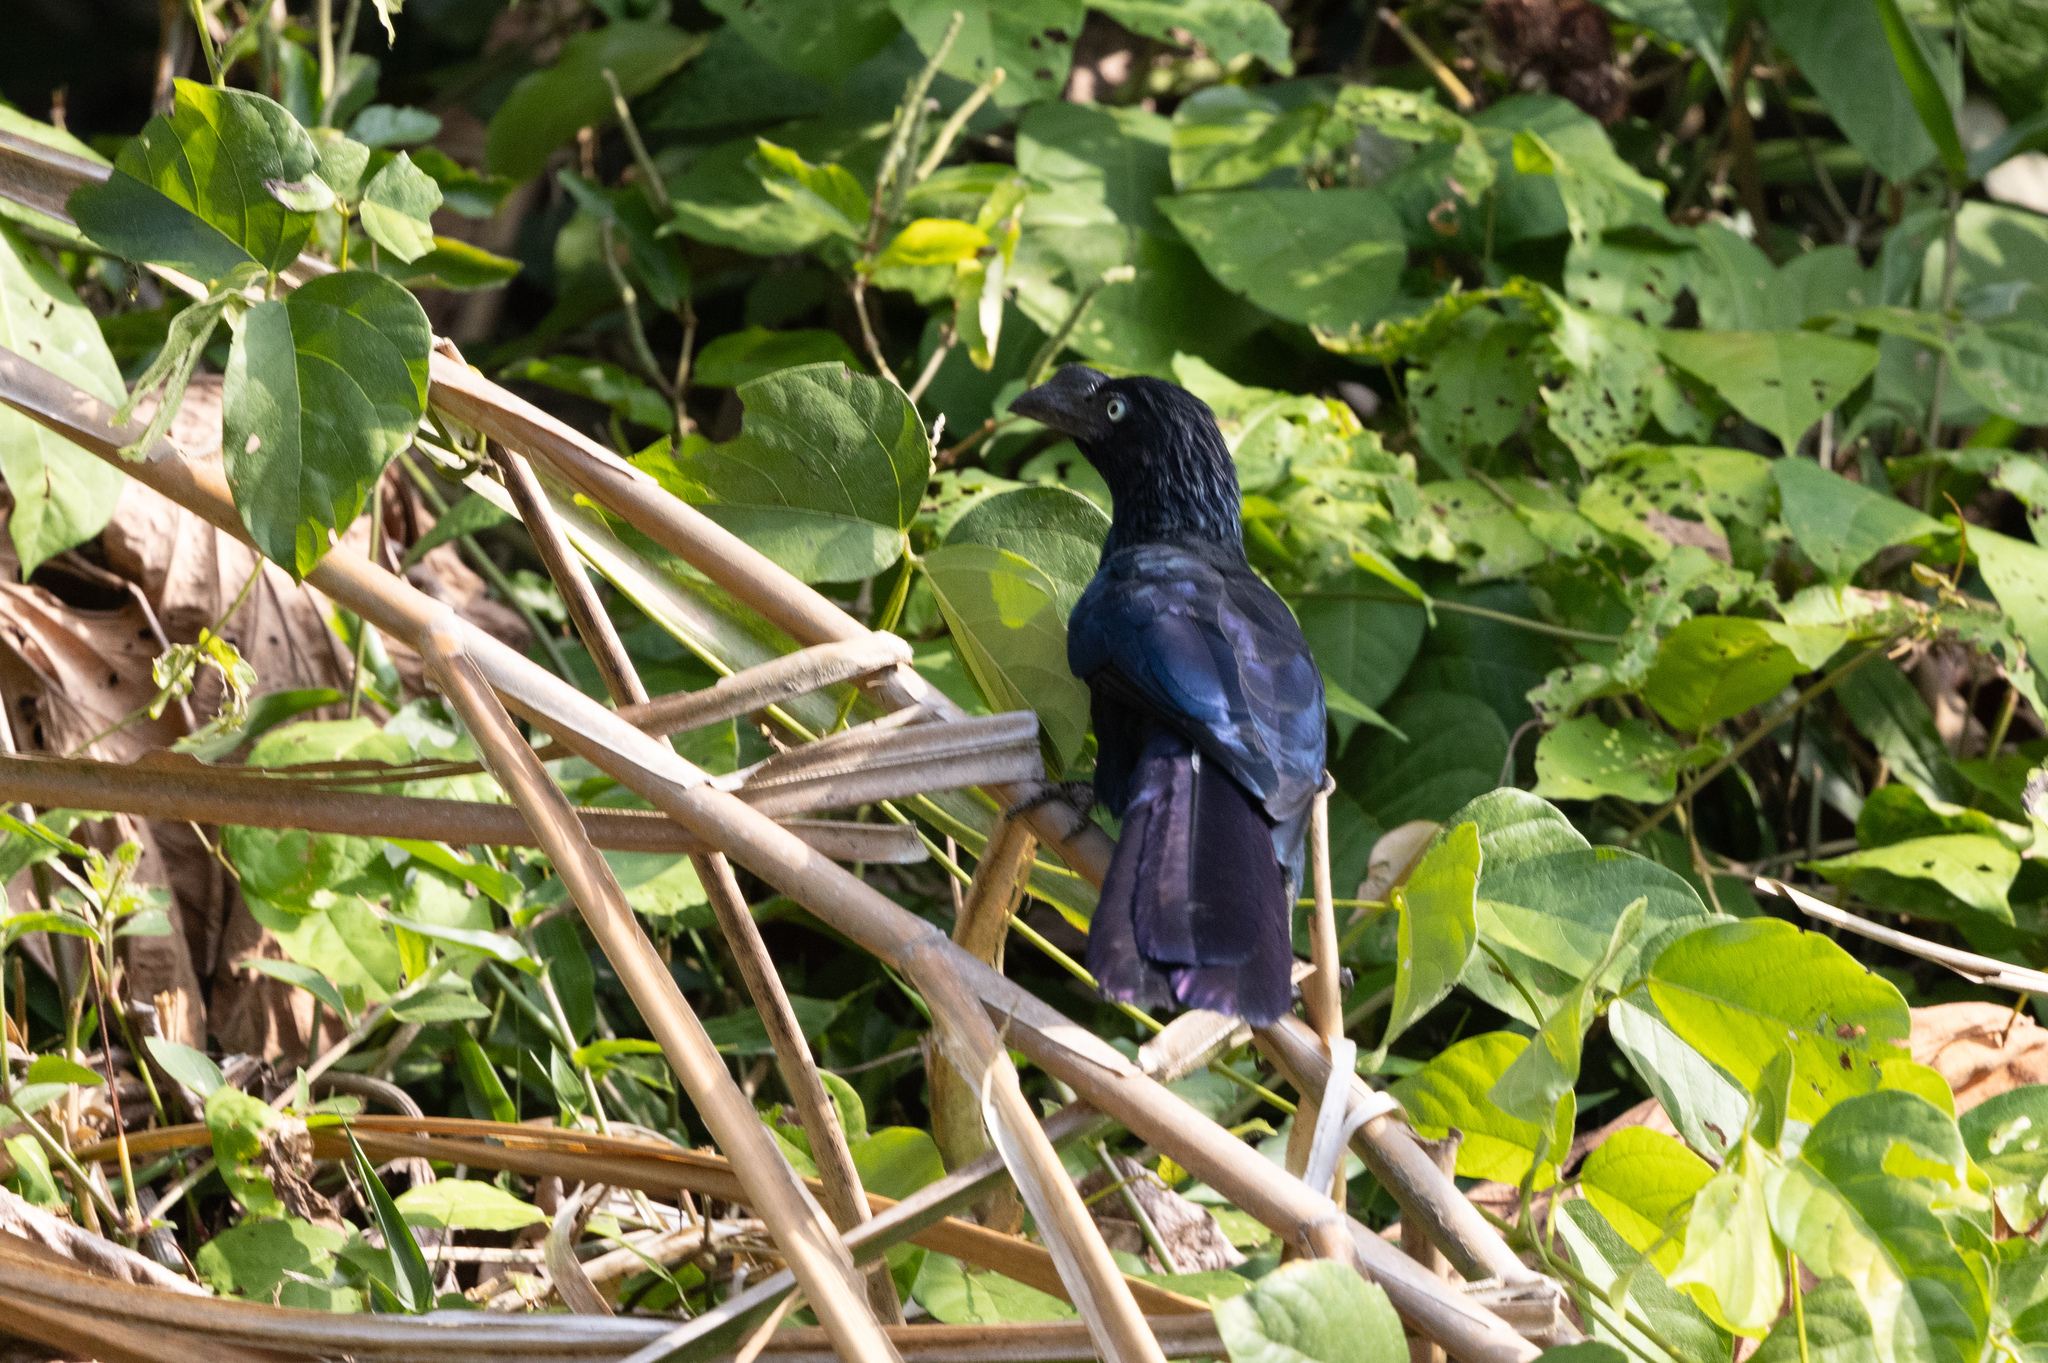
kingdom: Animalia
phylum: Chordata
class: Aves
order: Cuculiformes
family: Cuculidae
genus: Crotophaga
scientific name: Crotophaga major
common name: Greater ani
